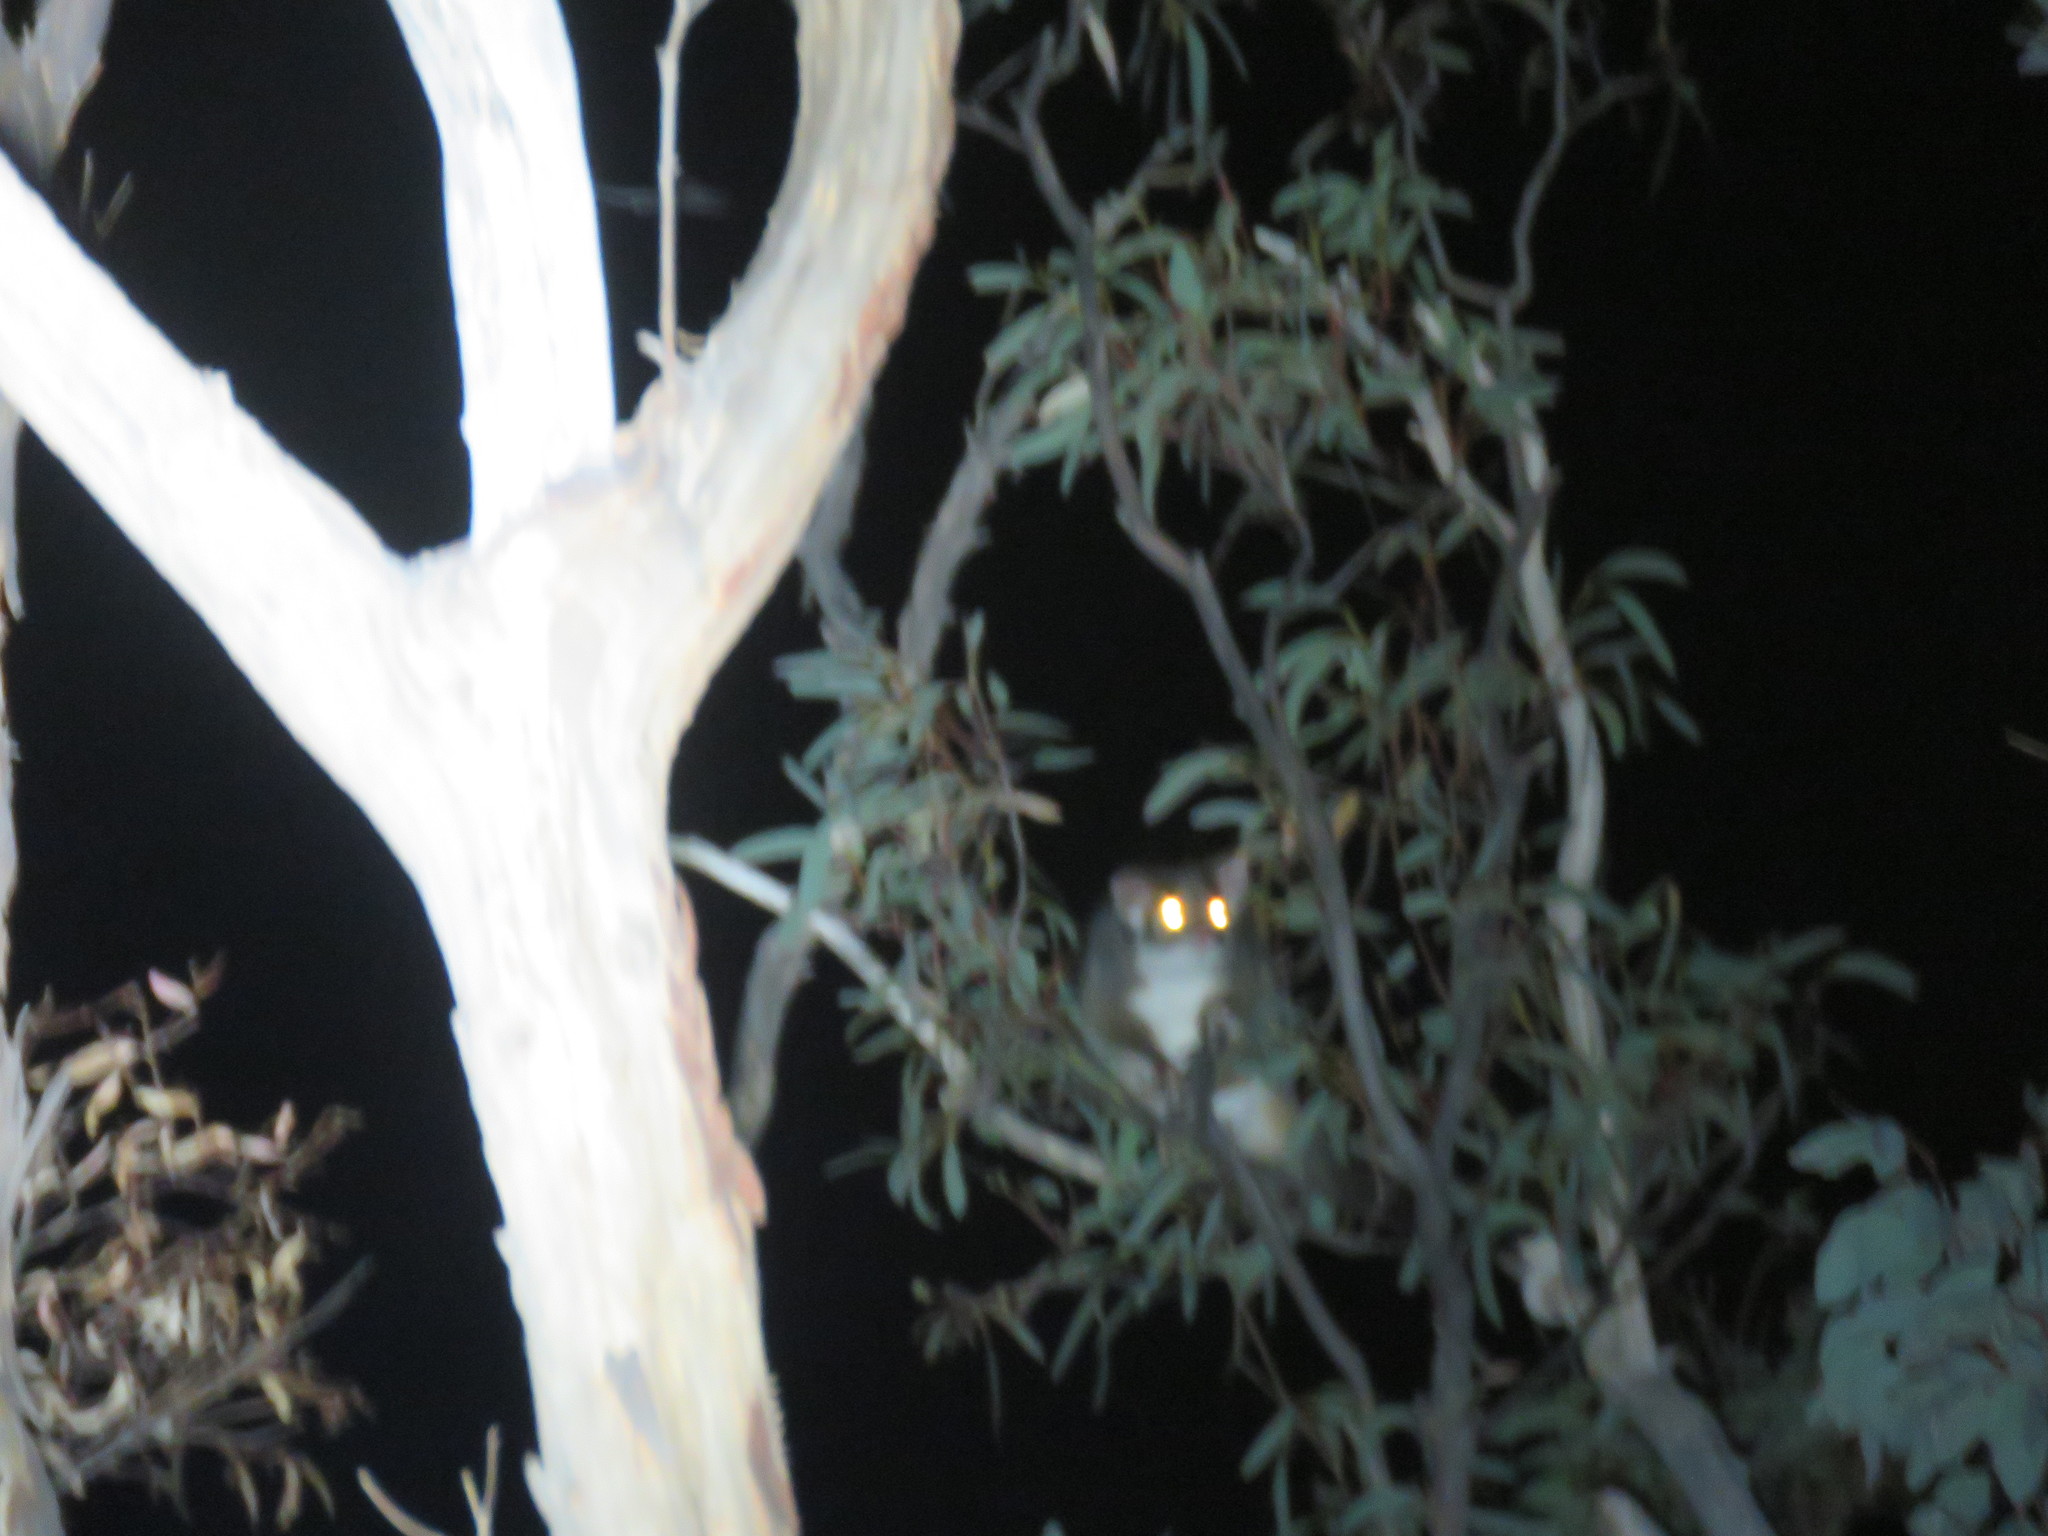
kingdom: Animalia
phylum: Chordata
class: Mammalia
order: Diprotodontia
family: Pseudocheiridae
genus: Pseudocheirus
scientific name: Pseudocheirus peregrinus
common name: Common ringtail possum
